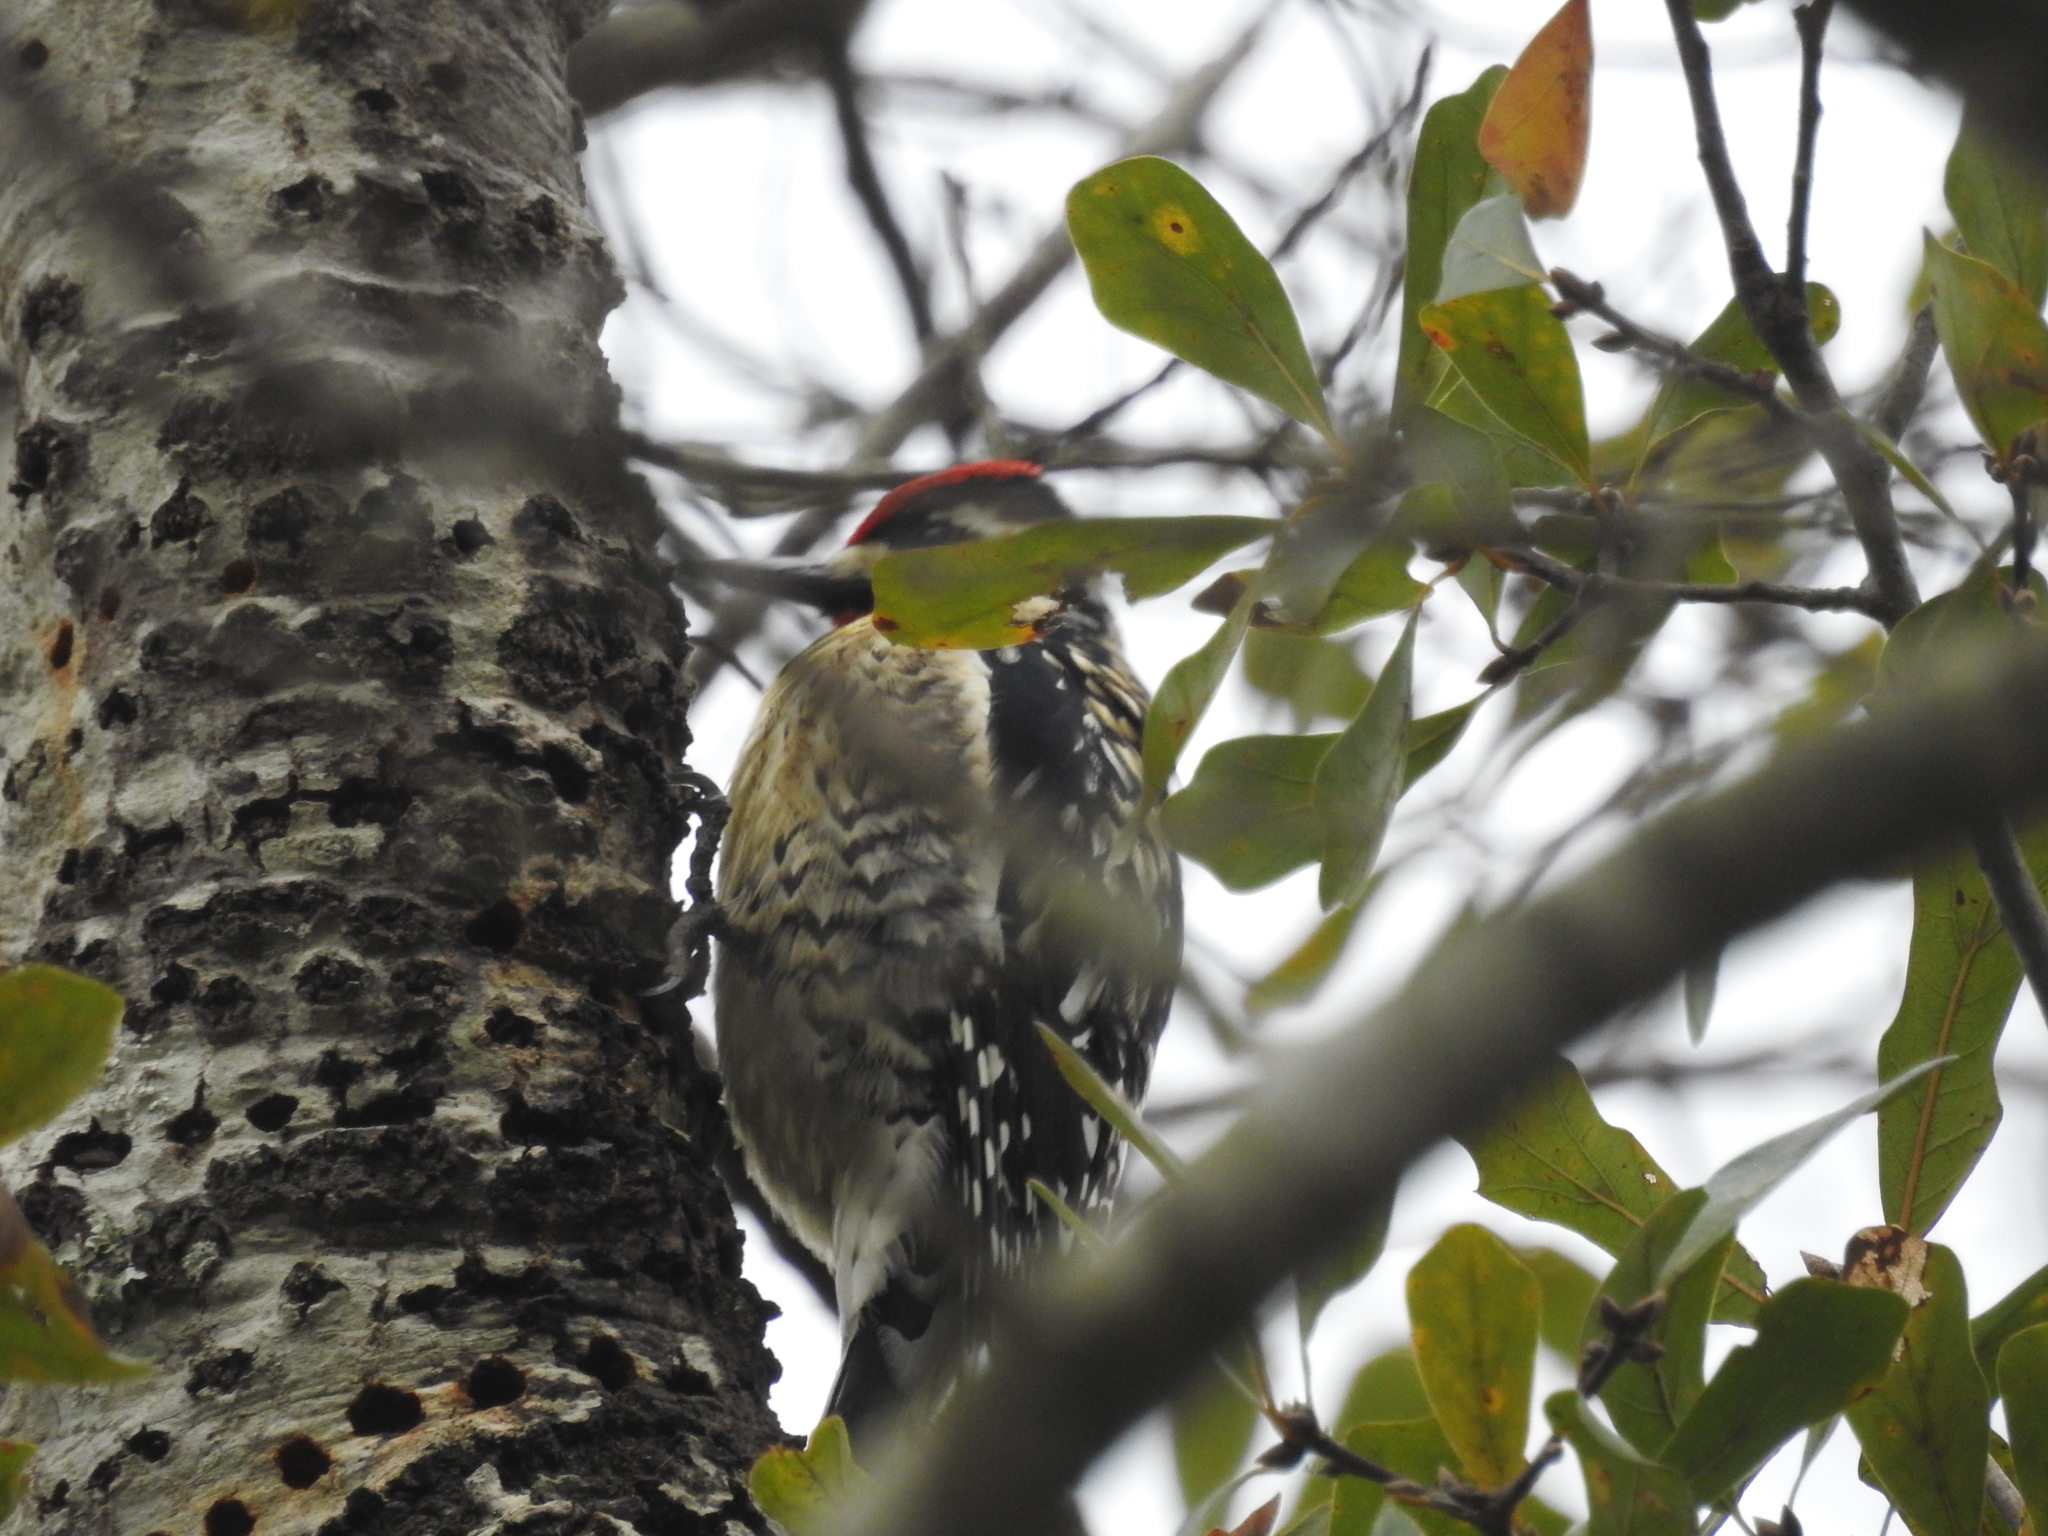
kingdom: Animalia
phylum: Chordata
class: Aves
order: Piciformes
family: Picidae
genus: Sphyrapicus
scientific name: Sphyrapicus varius
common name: Yellow-bellied sapsucker
